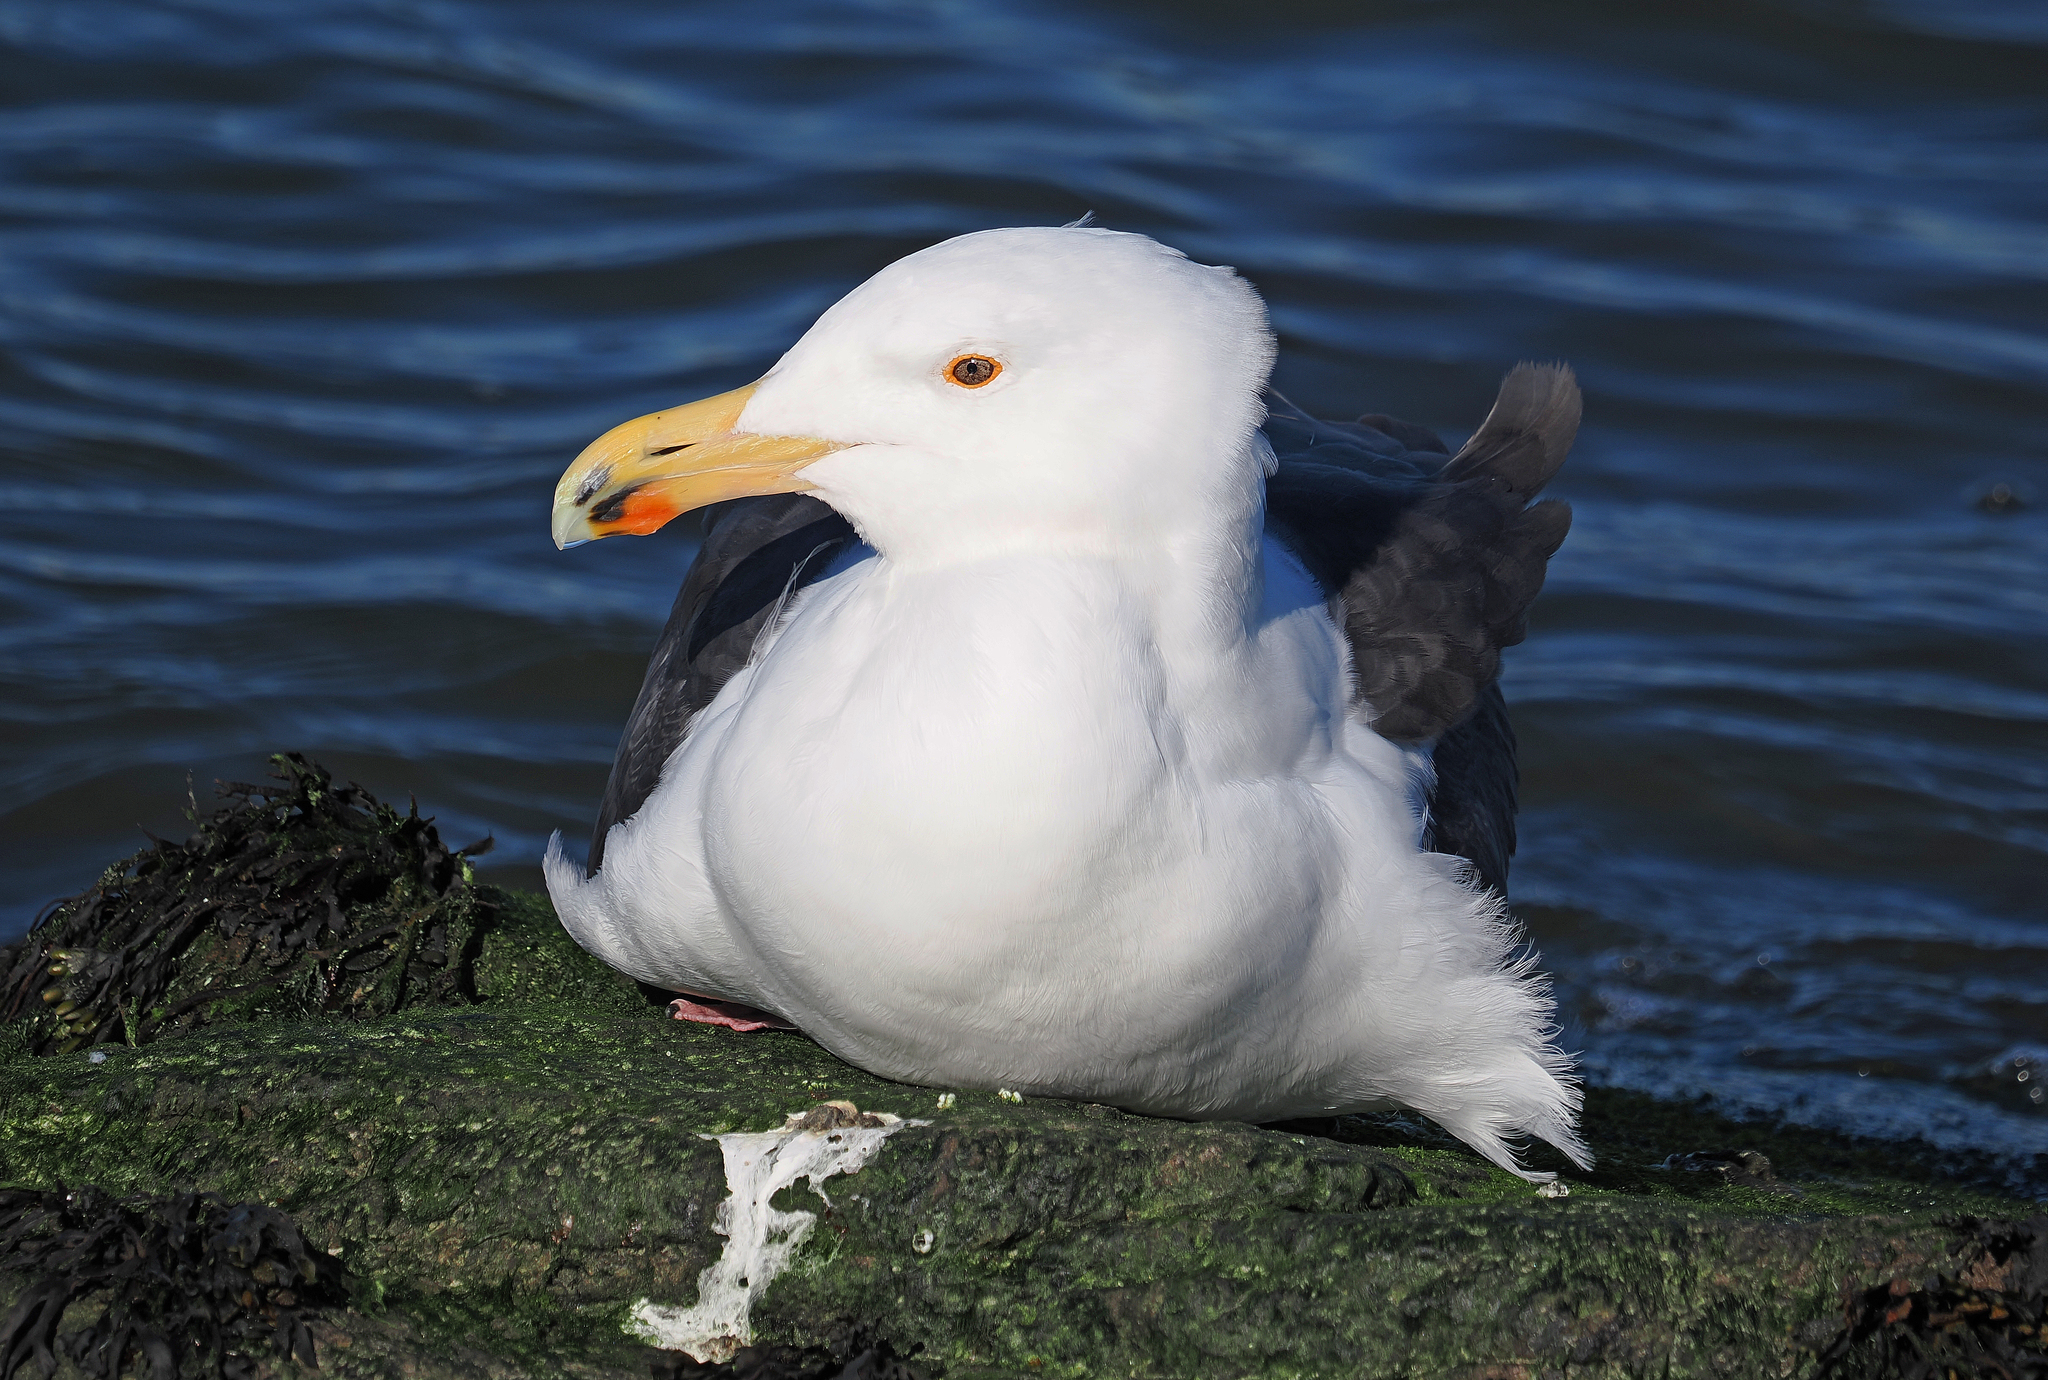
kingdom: Animalia
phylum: Chordata
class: Aves
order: Charadriiformes
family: Laridae
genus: Larus
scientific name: Larus marinus
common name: Great black-backed gull
